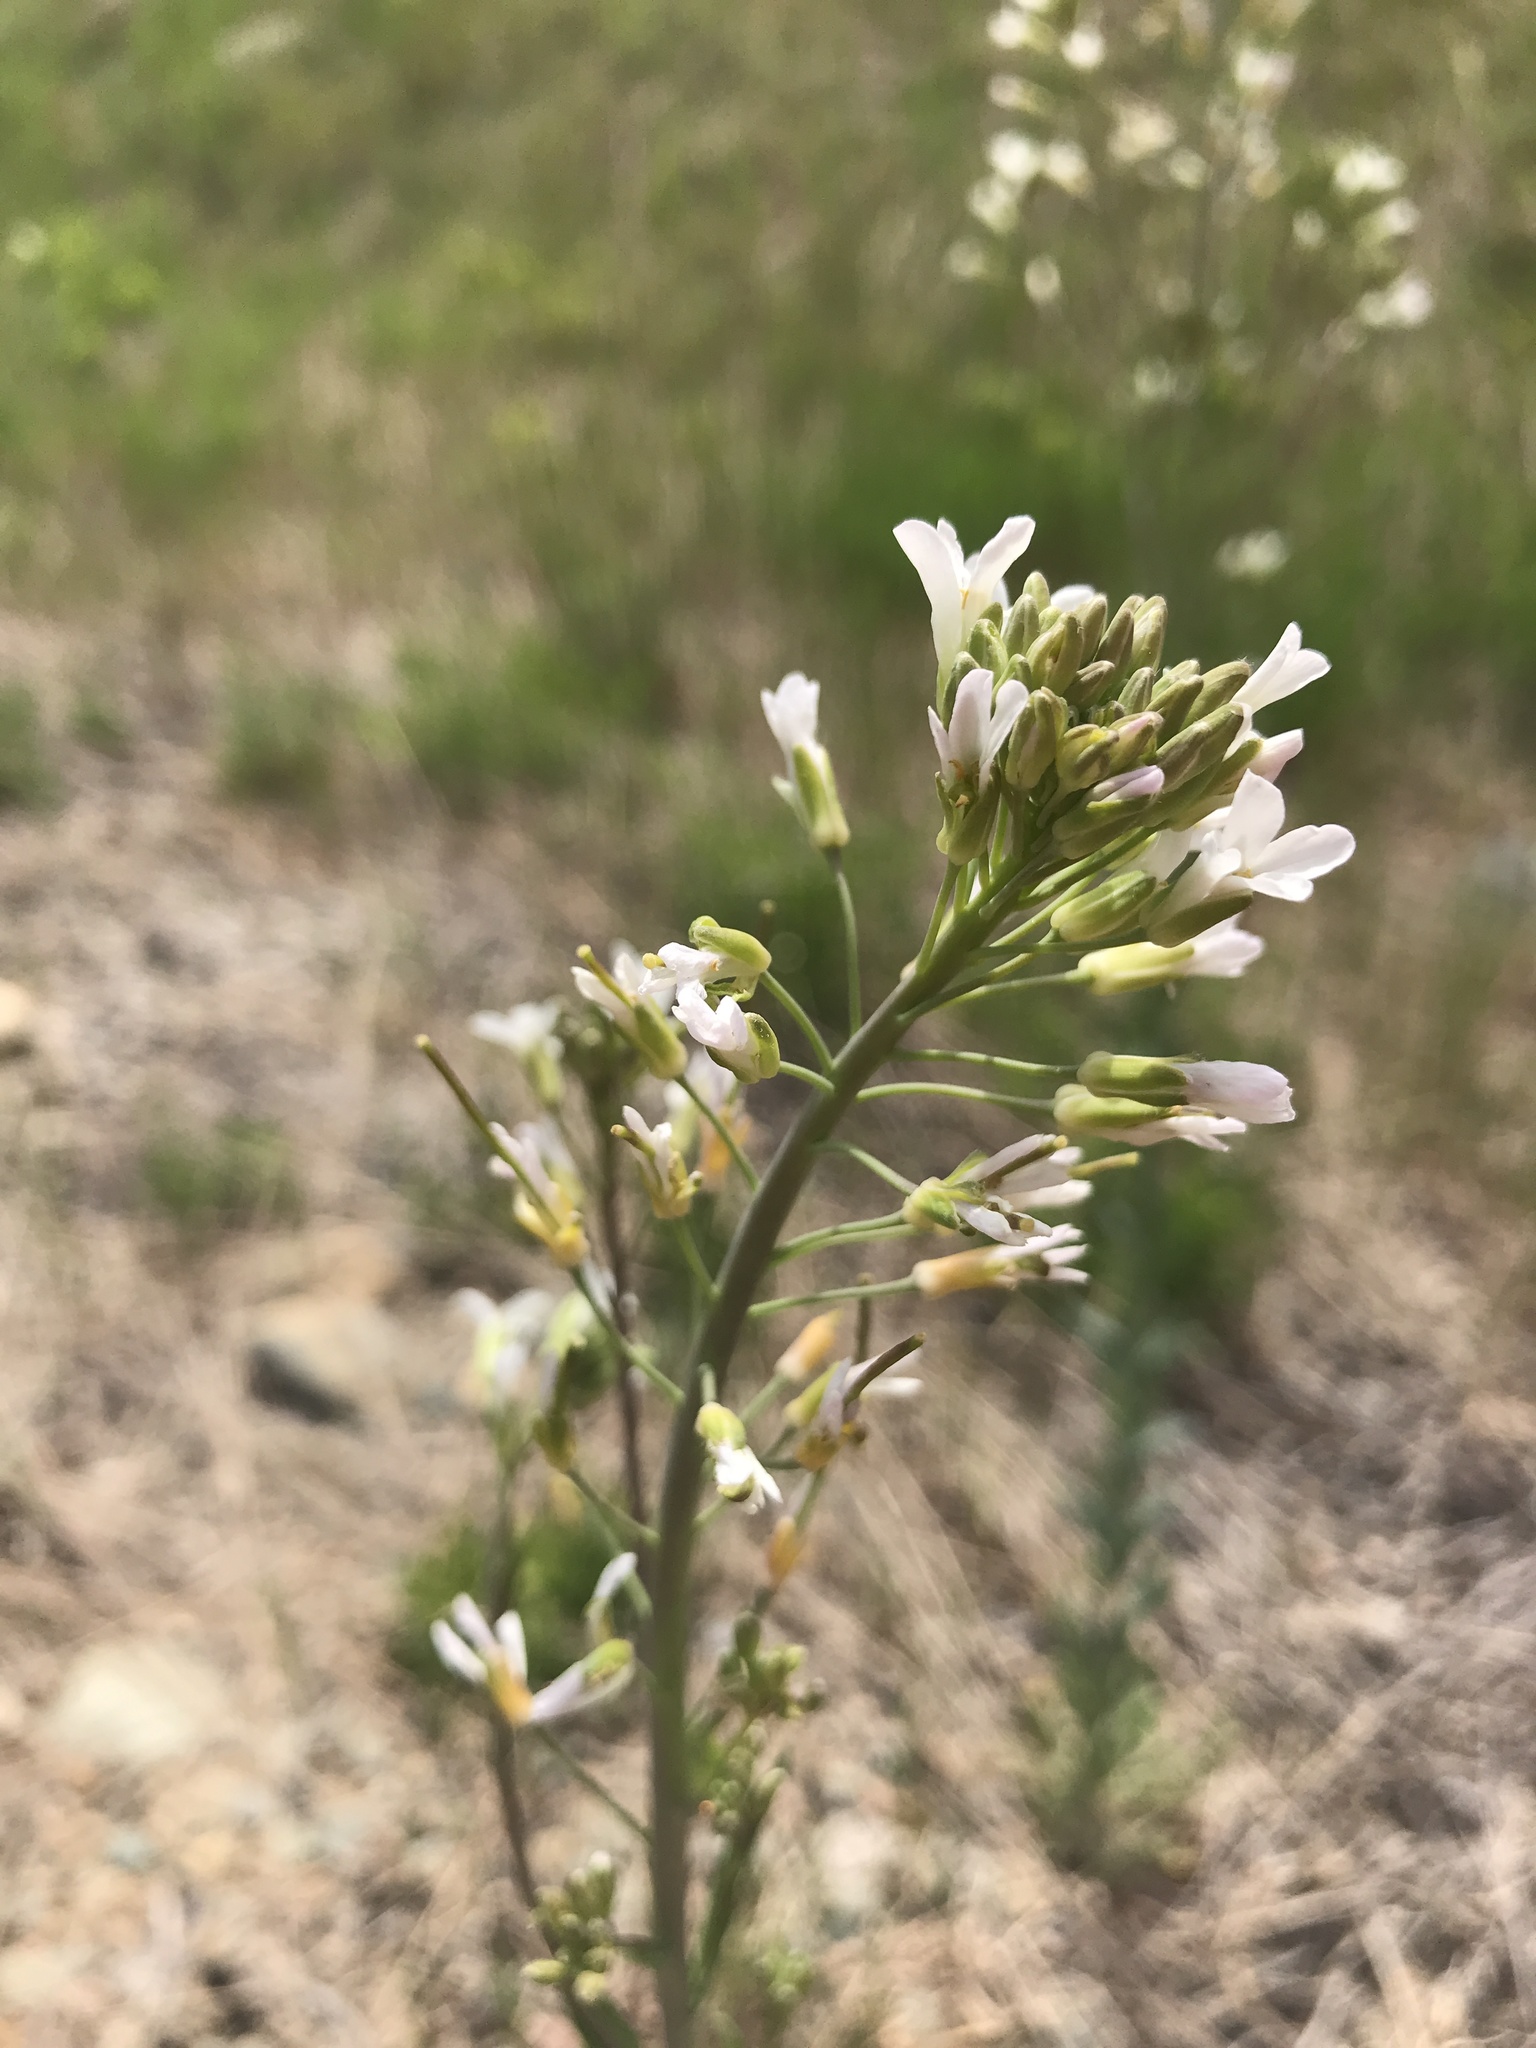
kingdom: Plantae
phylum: Tracheophyta
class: Magnoliopsida
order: Brassicales
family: Brassicaceae
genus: Boechera
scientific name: Boechera grahamii
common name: Graham's rockcress
